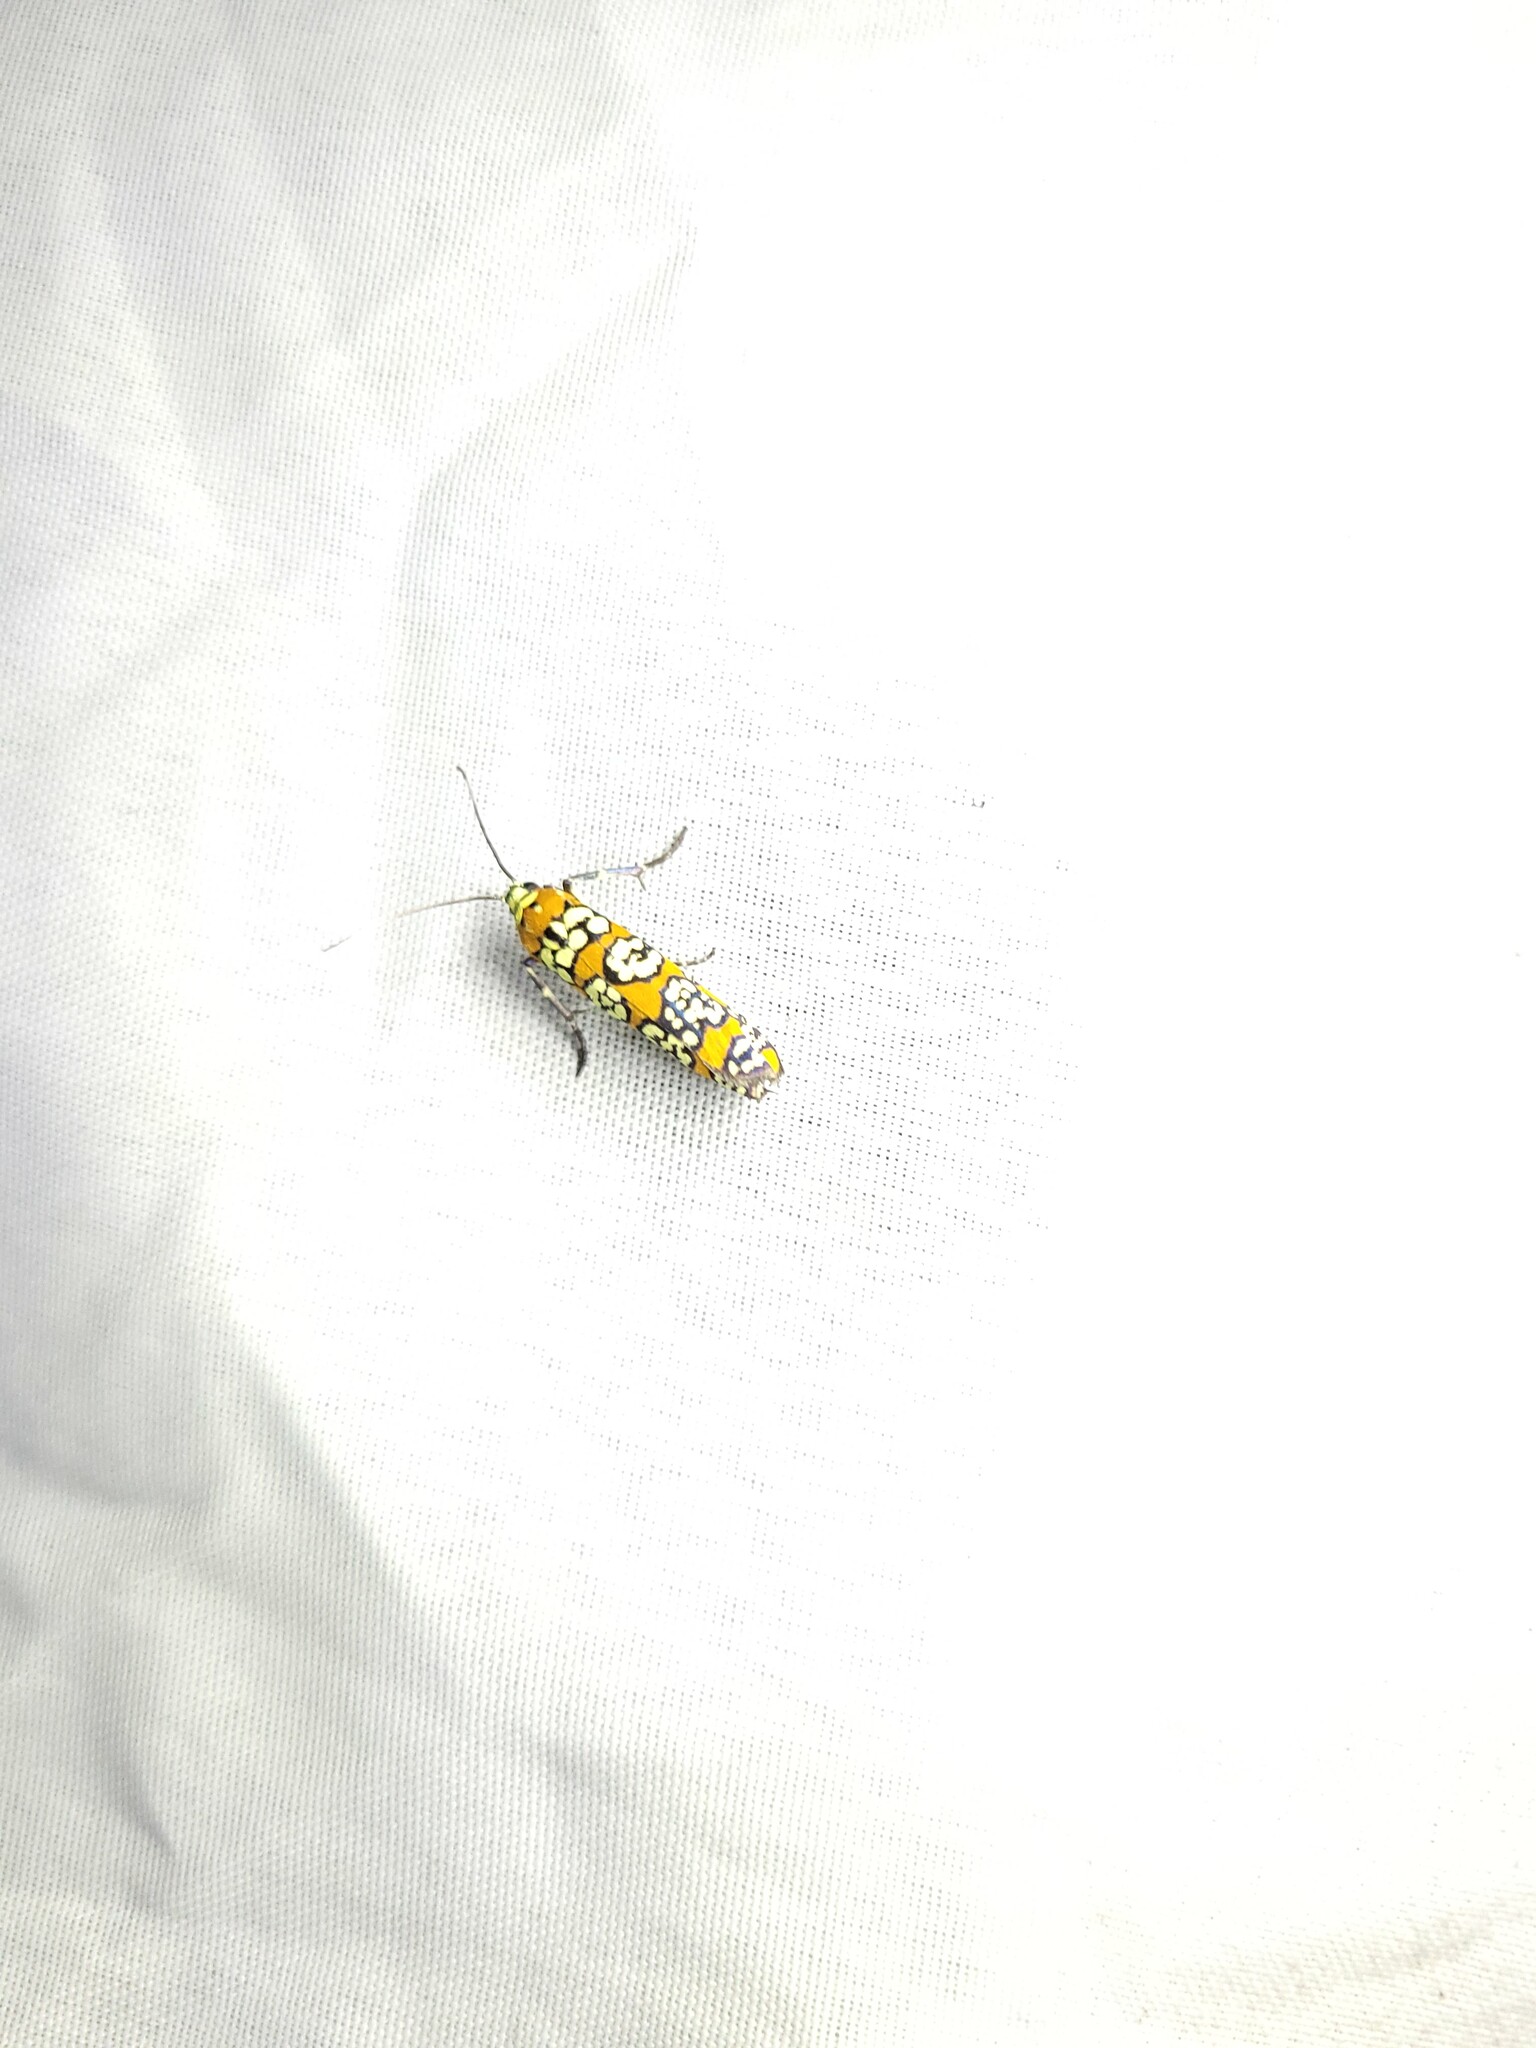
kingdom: Animalia
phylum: Arthropoda
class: Insecta
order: Lepidoptera
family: Attevidae
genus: Atteva
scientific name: Atteva punctella
